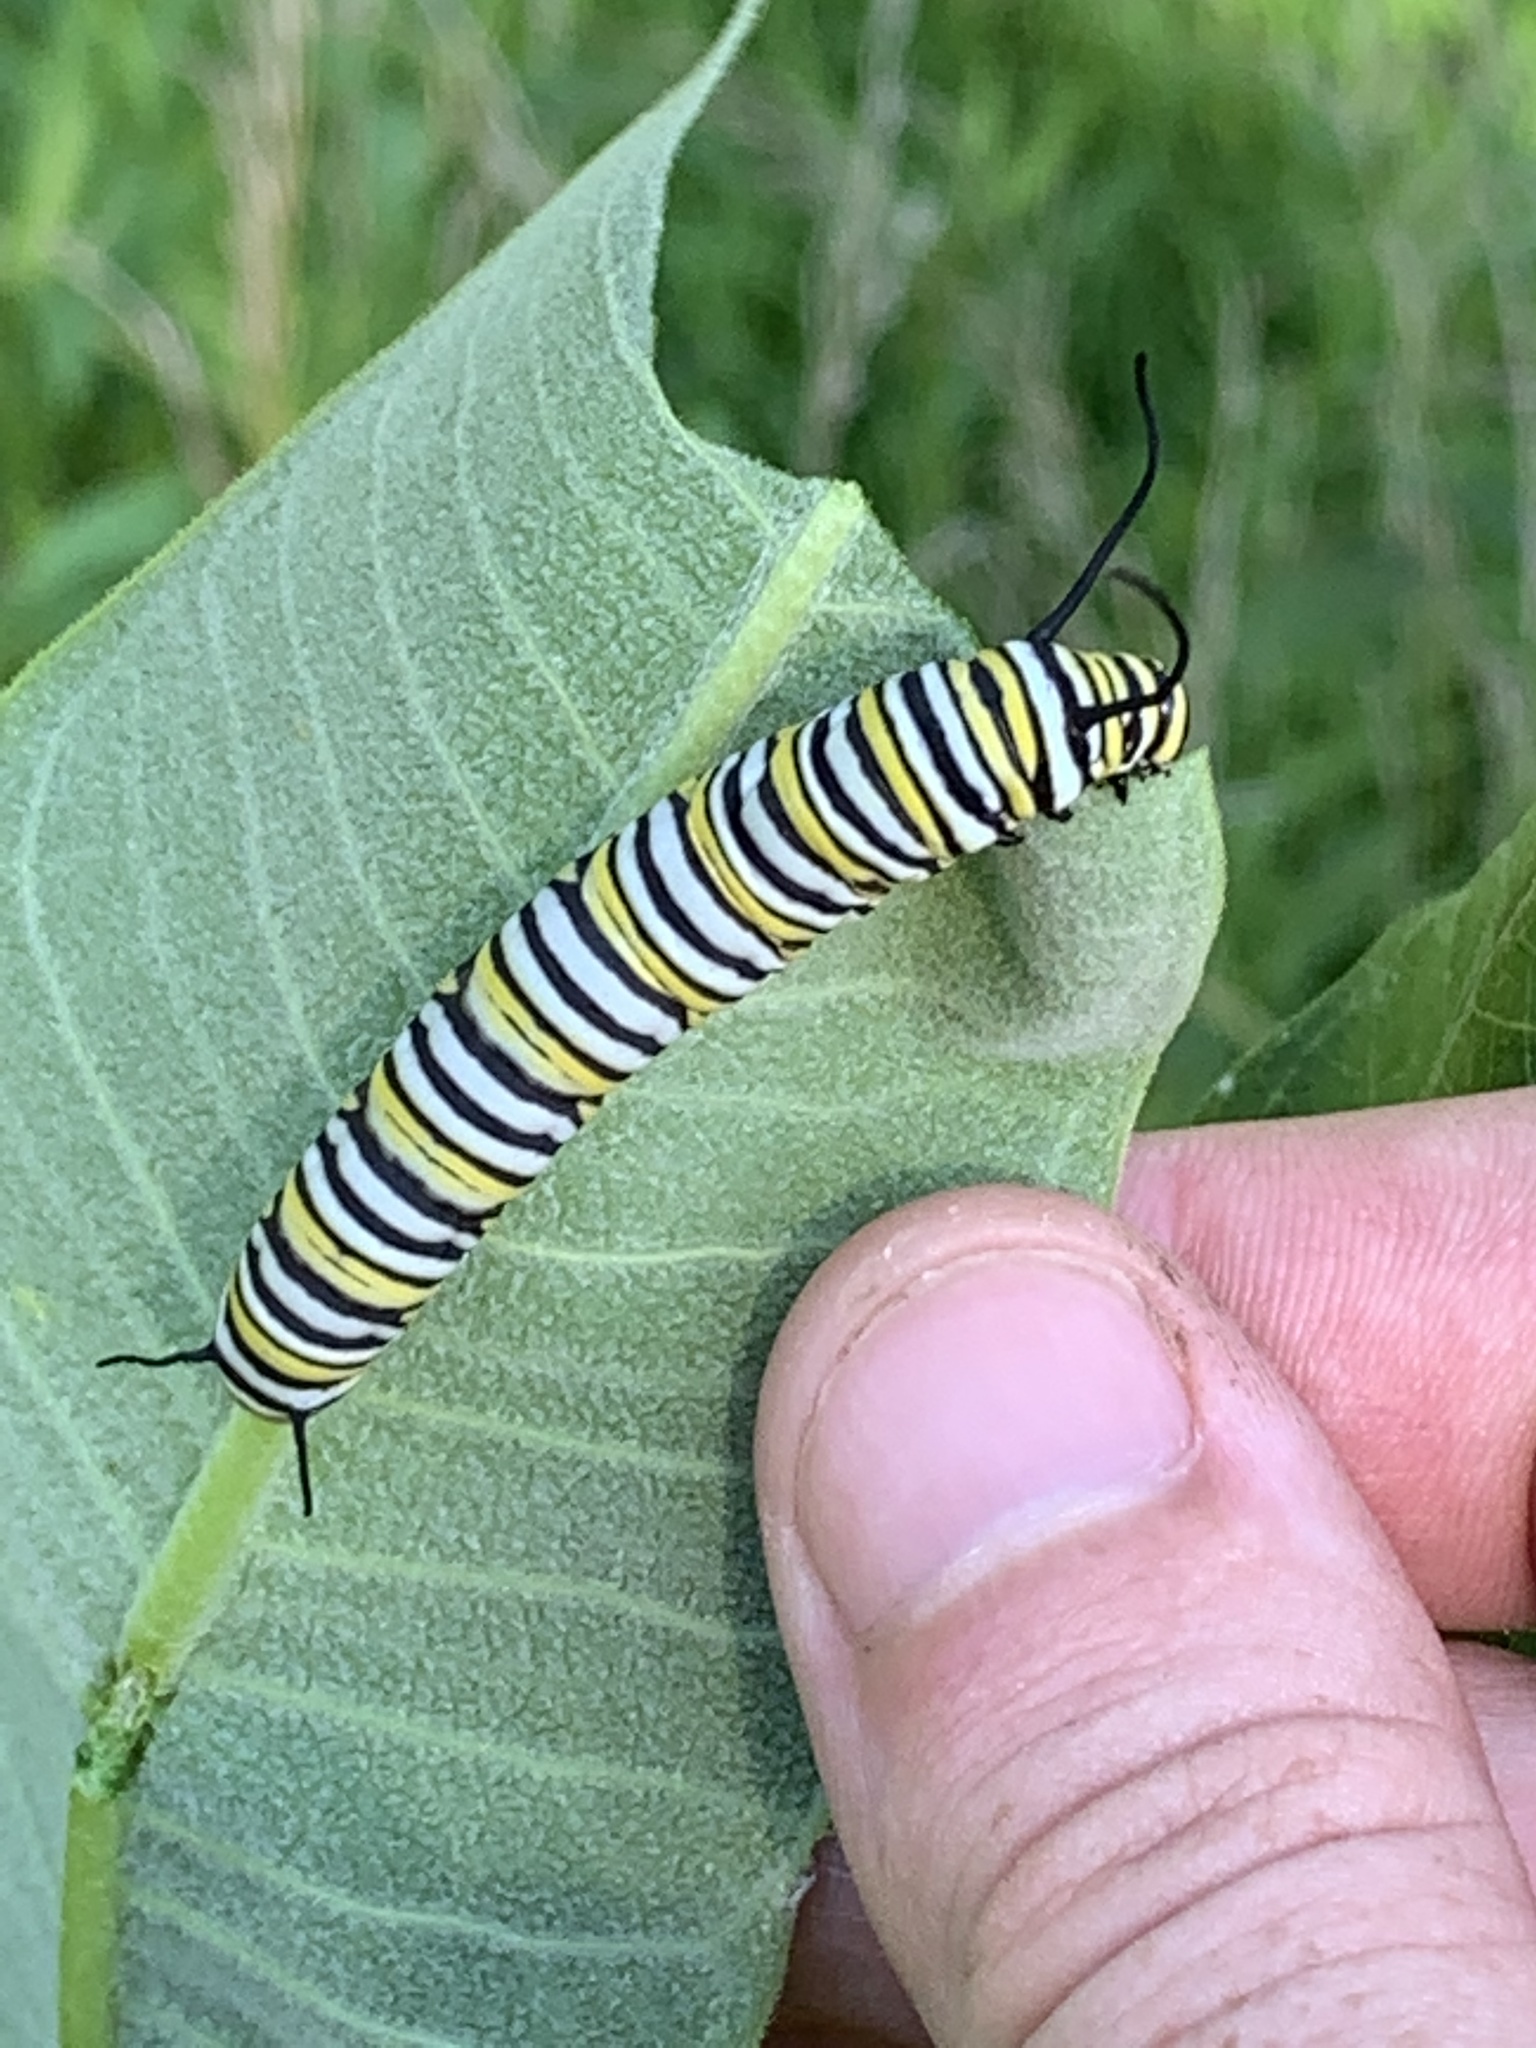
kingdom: Animalia
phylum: Arthropoda
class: Insecta
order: Lepidoptera
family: Nymphalidae
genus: Danaus
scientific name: Danaus plexippus
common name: Monarch
